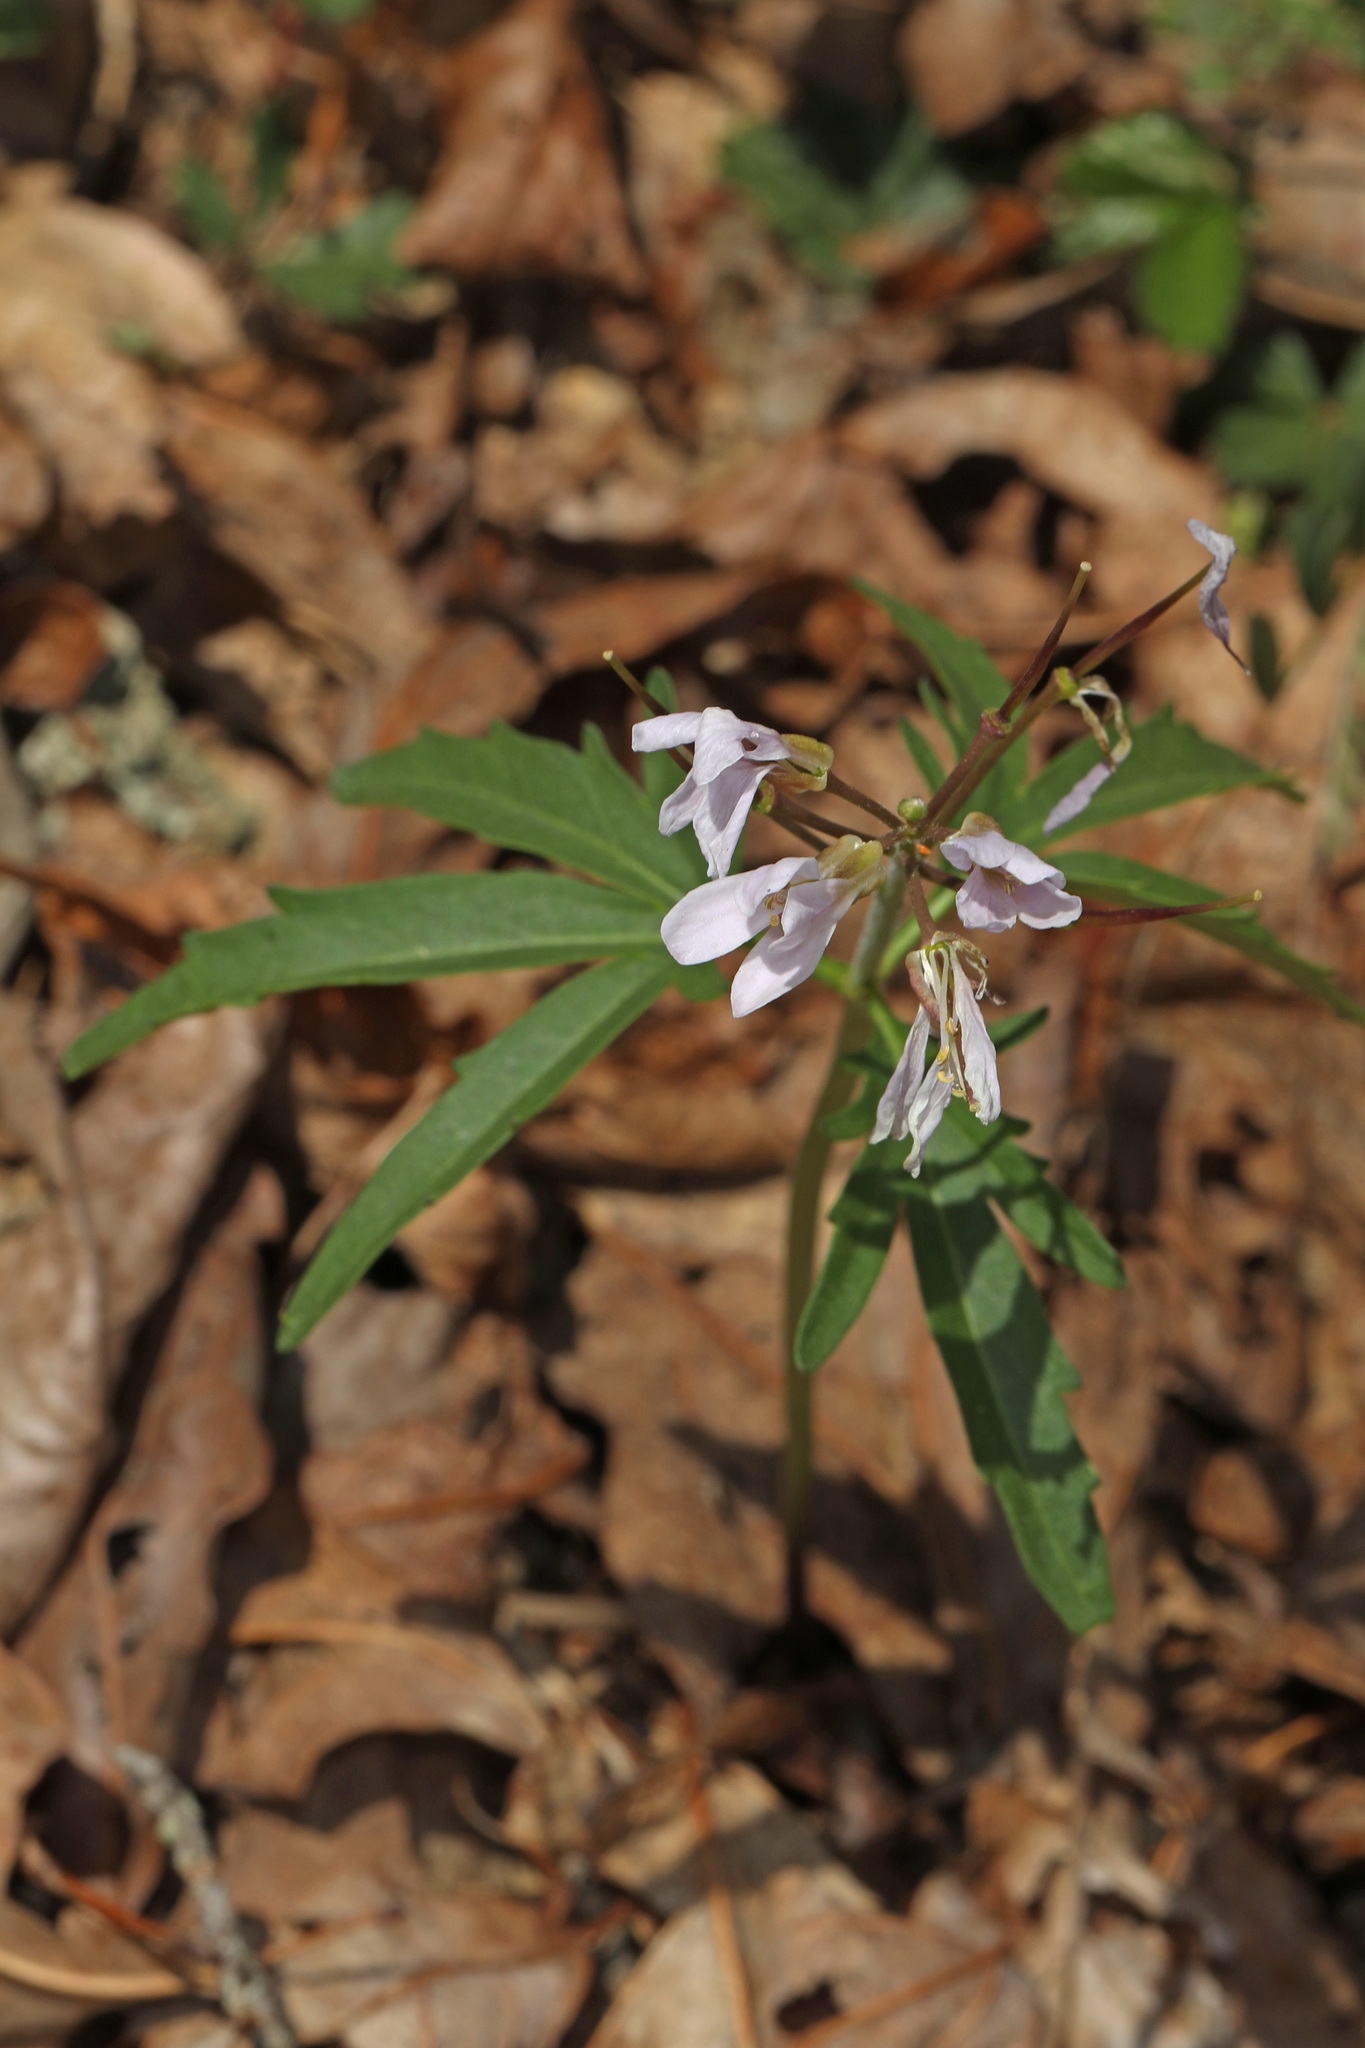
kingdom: Plantae
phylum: Tracheophyta
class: Magnoliopsida
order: Brassicales
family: Brassicaceae
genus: Cardamine
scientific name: Cardamine concatenata
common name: Cut-leaf toothcup
